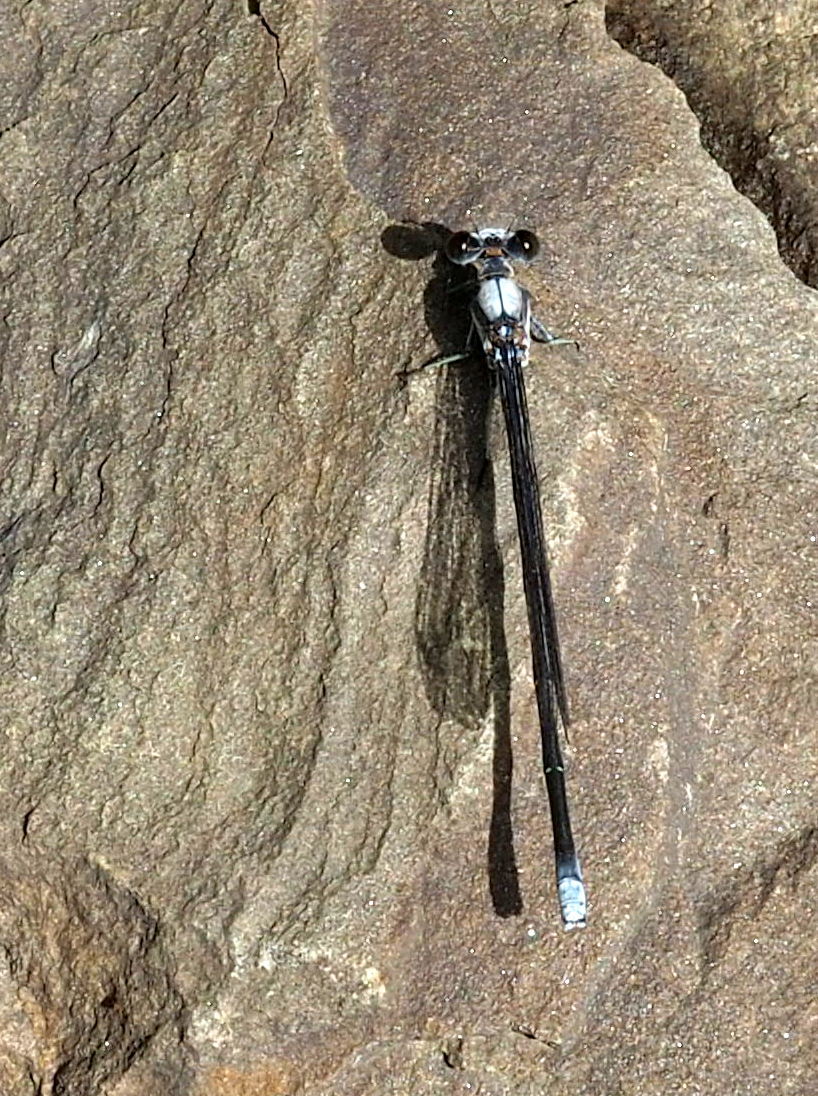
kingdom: Animalia
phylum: Arthropoda
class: Insecta
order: Odonata
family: Coenagrionidae
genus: Argia
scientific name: Argia moesta
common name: Powdered dancer
